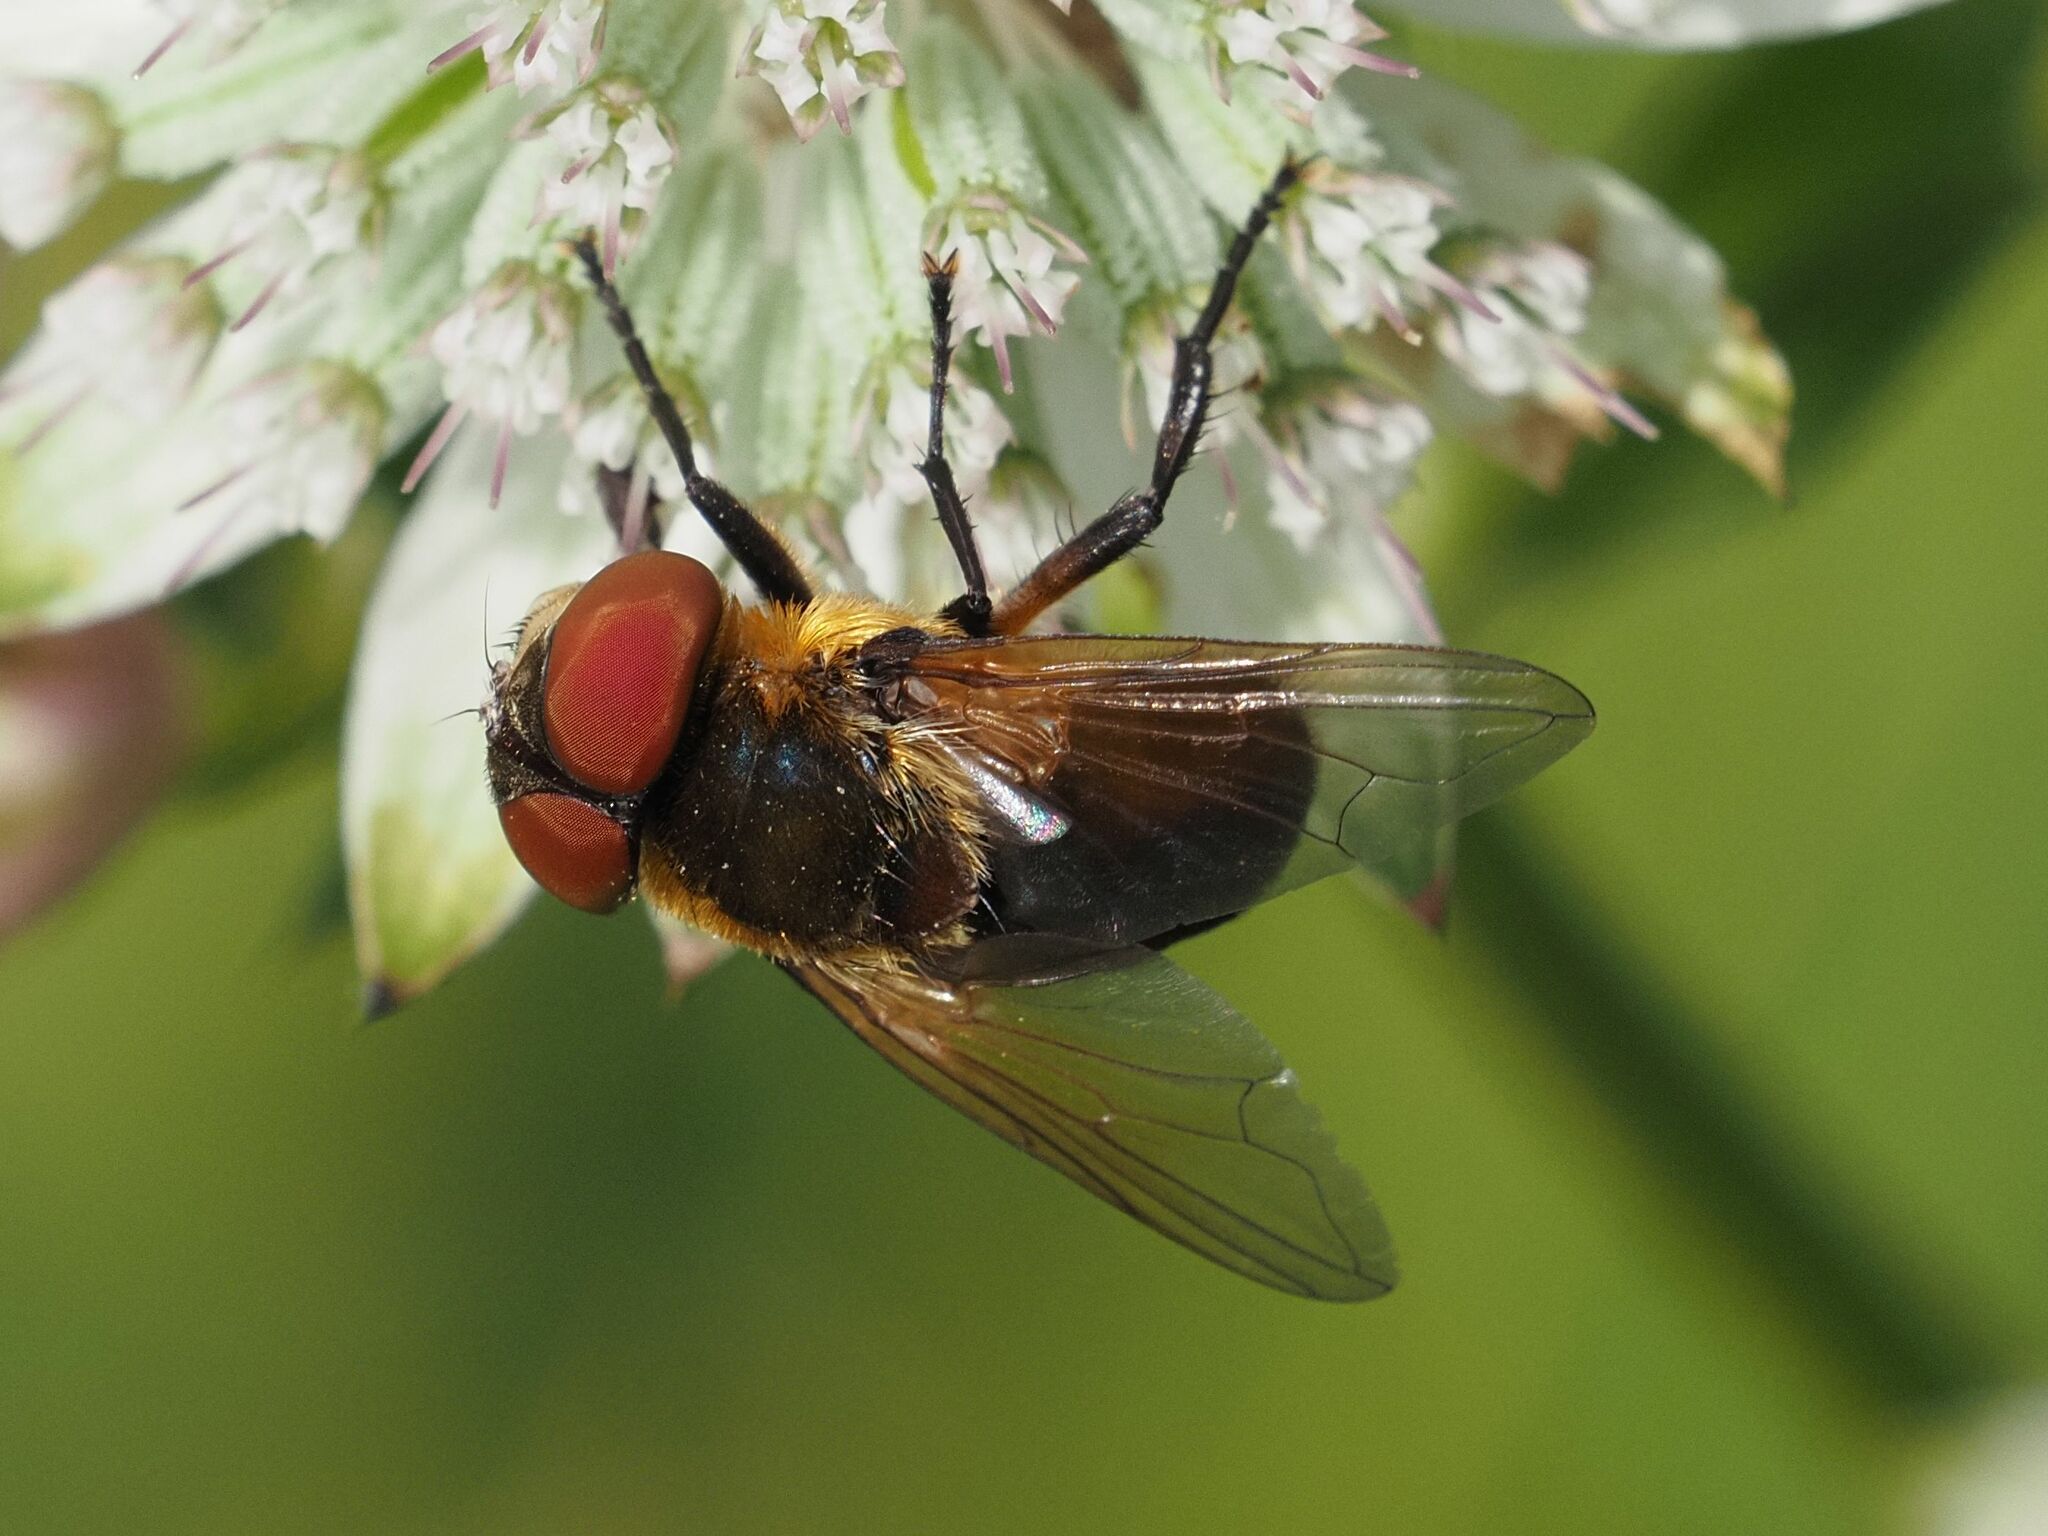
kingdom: Animalia
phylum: Arthropoda
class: Insecta
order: Diptera
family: Tachinidae
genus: Phasia
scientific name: Phasia hemiptera
